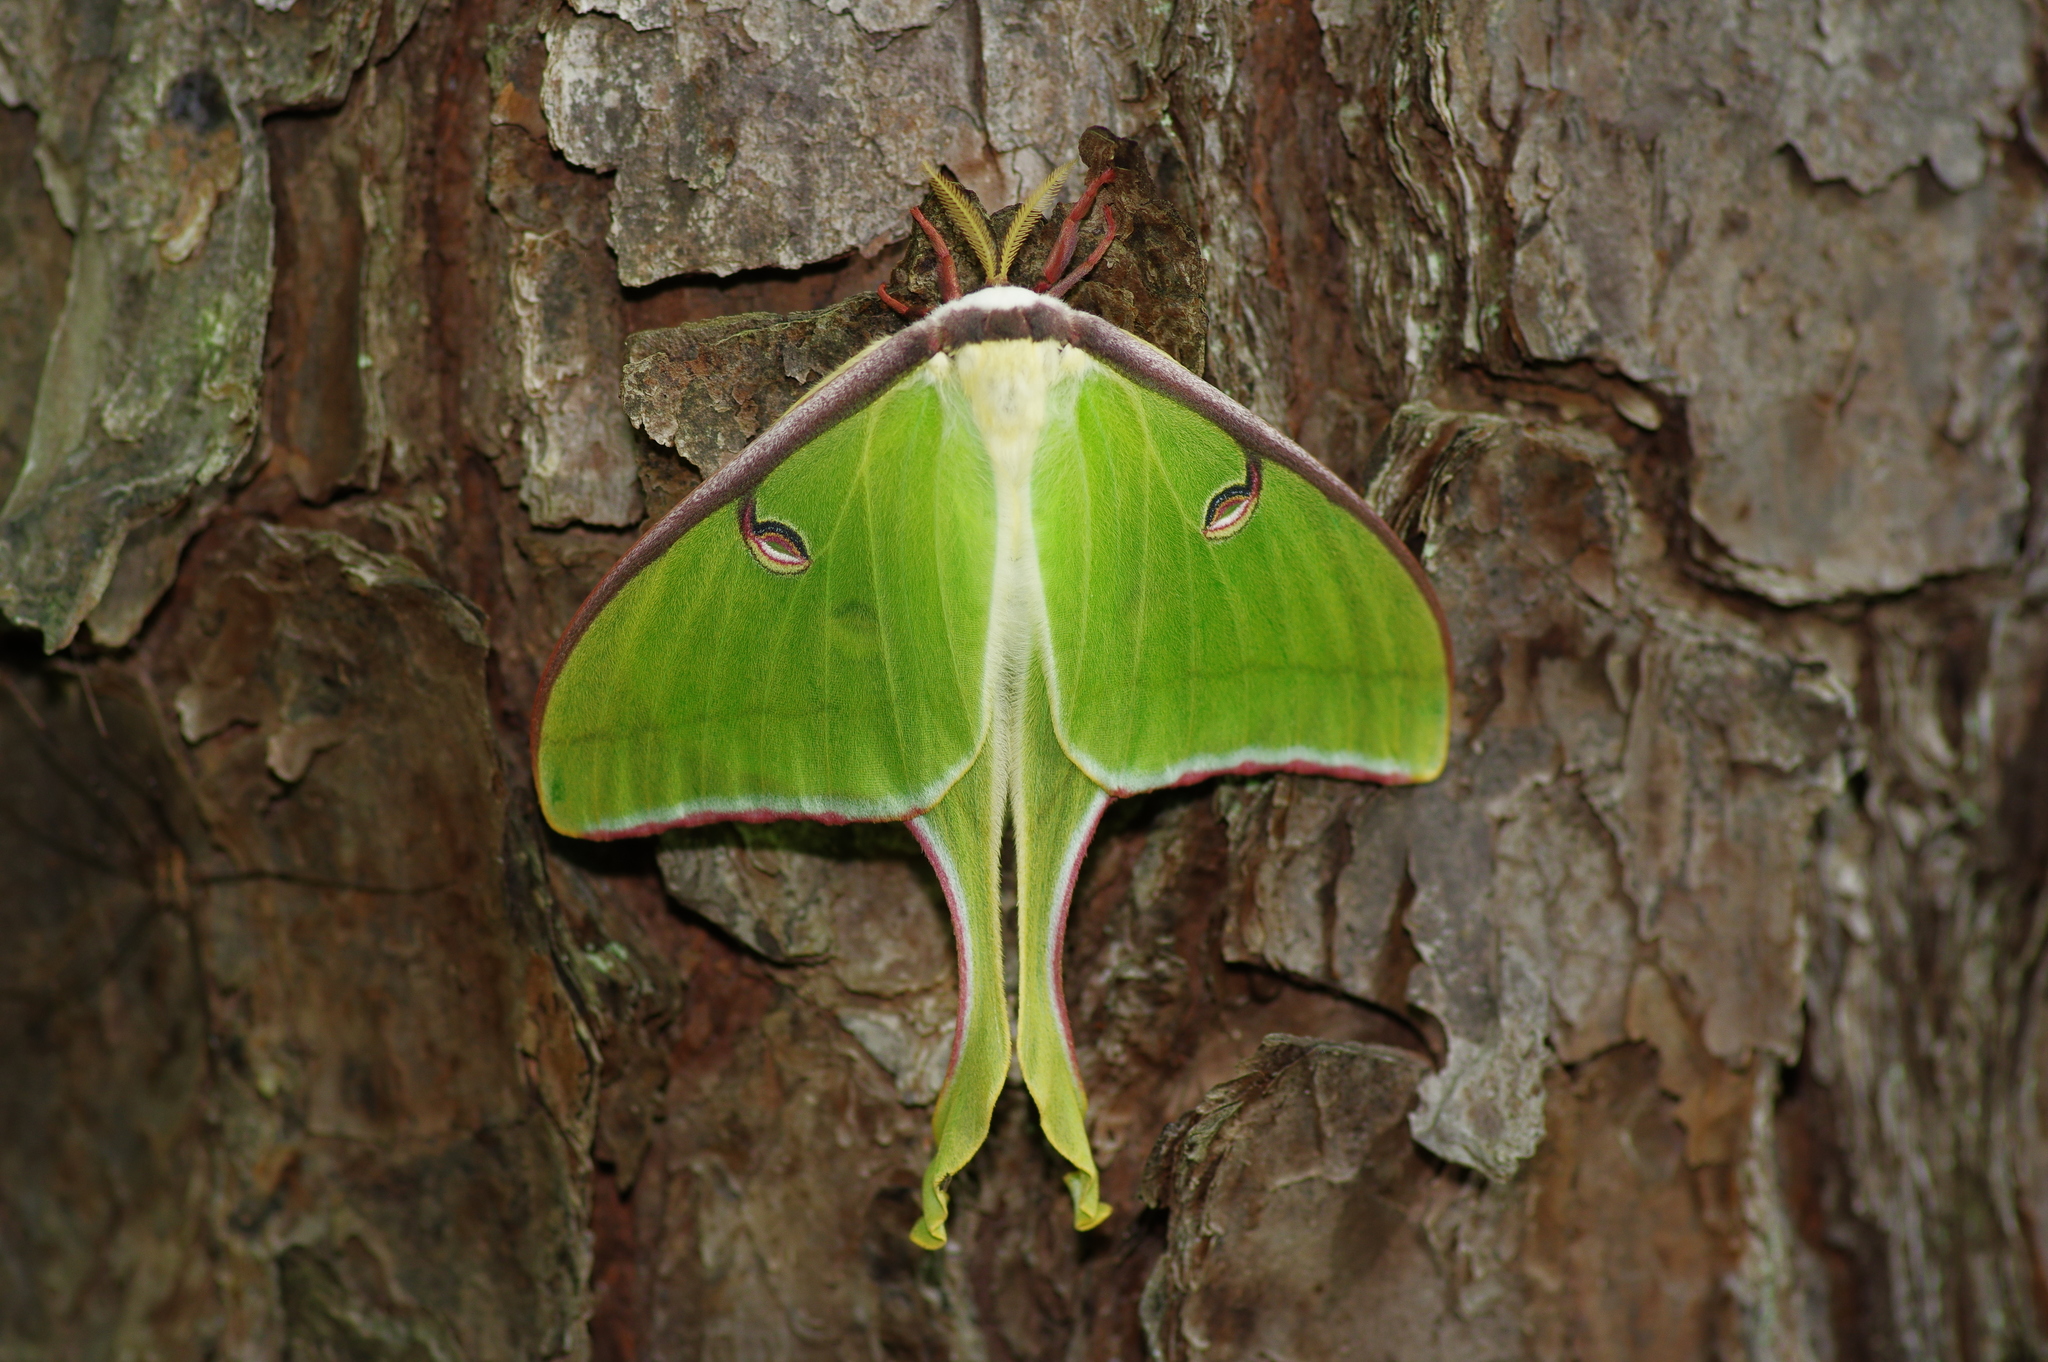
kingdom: Animalia
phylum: Arthropoda
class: Insecta
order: Lepidoptera
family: Saturniidae
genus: Actias
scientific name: Actias luna
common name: Luna moth
